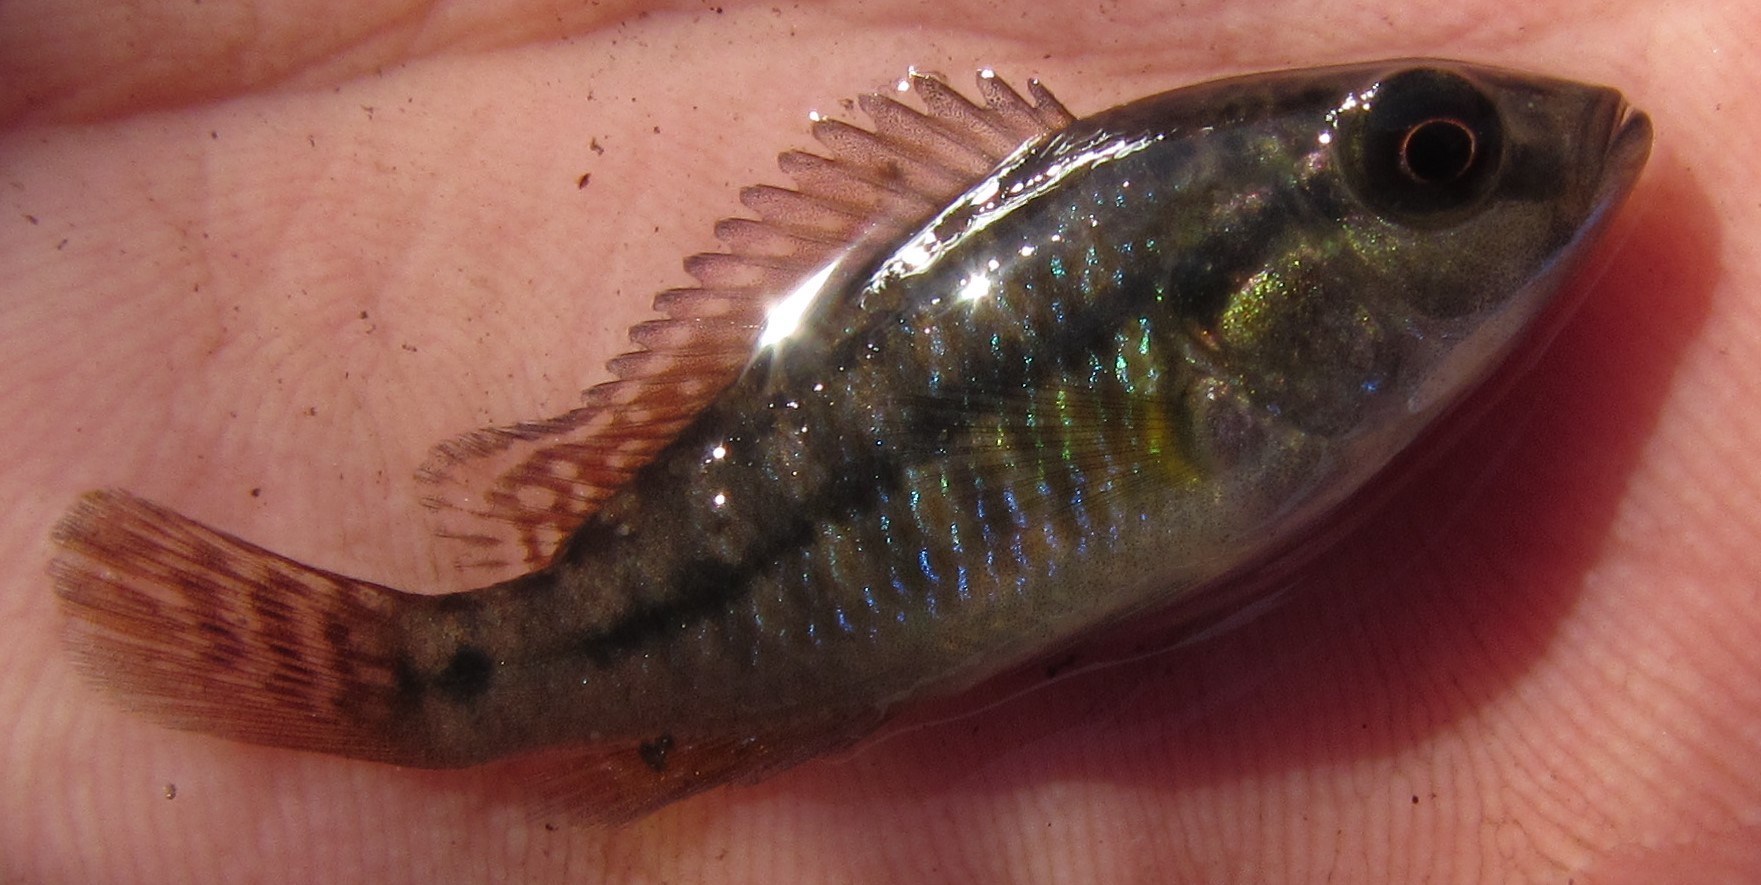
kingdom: Animalia
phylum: Chordata
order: Perciformes
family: Cichlidae
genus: Pseudocrenilabrus
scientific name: Pseudocrenilabrus philander
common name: Southern mouthbrooder
